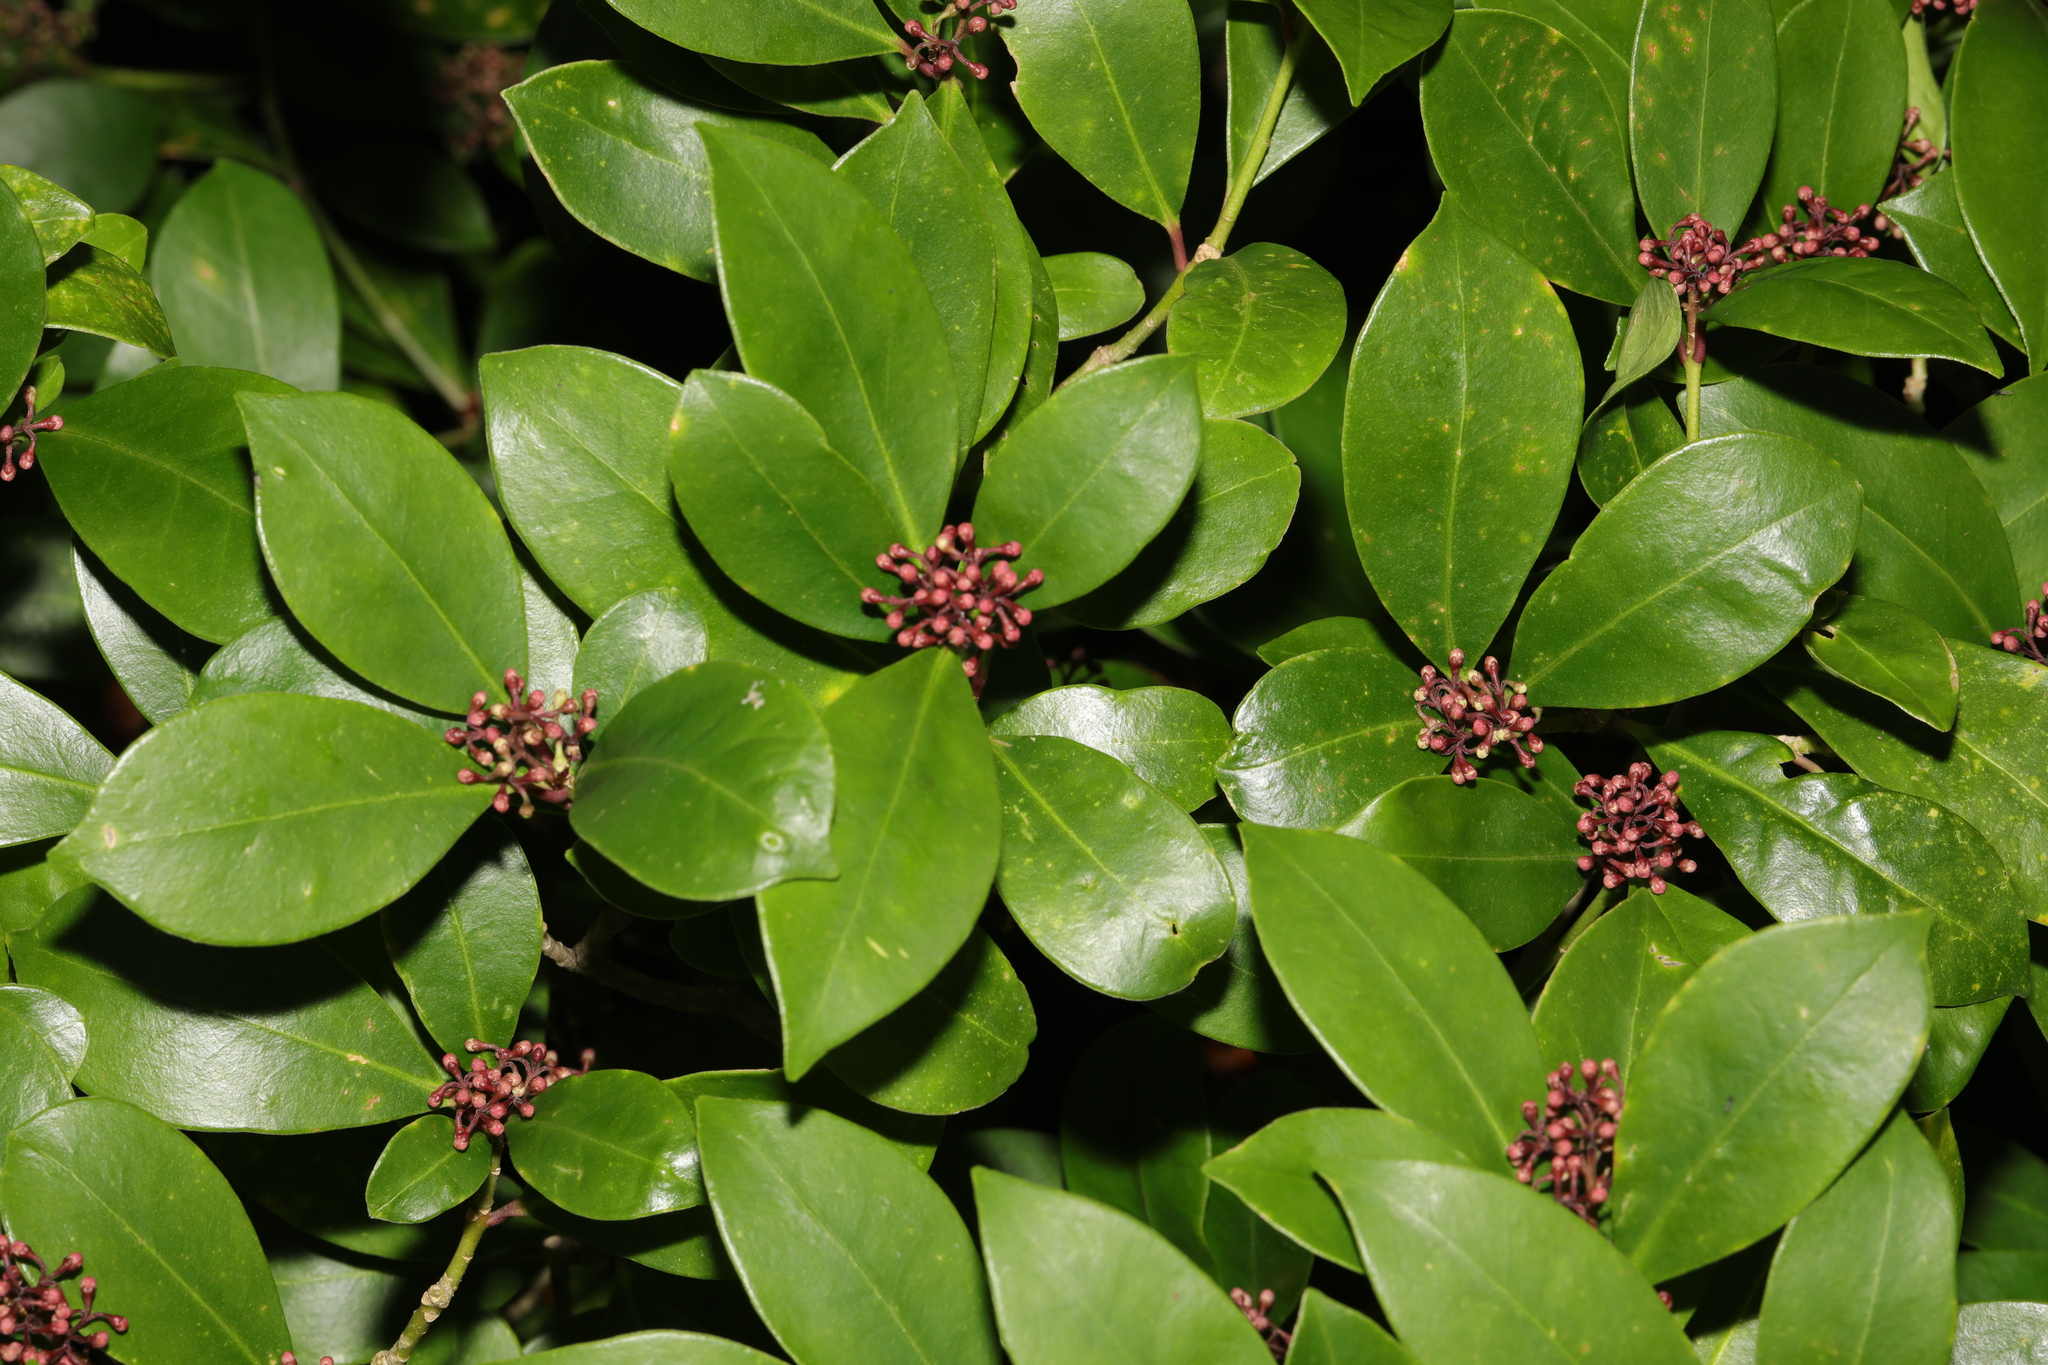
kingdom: Plantae
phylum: Tracheophyta
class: Magnoliopsida
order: Sapindales
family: Rutaceae
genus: Skimmia
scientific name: Skimmia japonica
